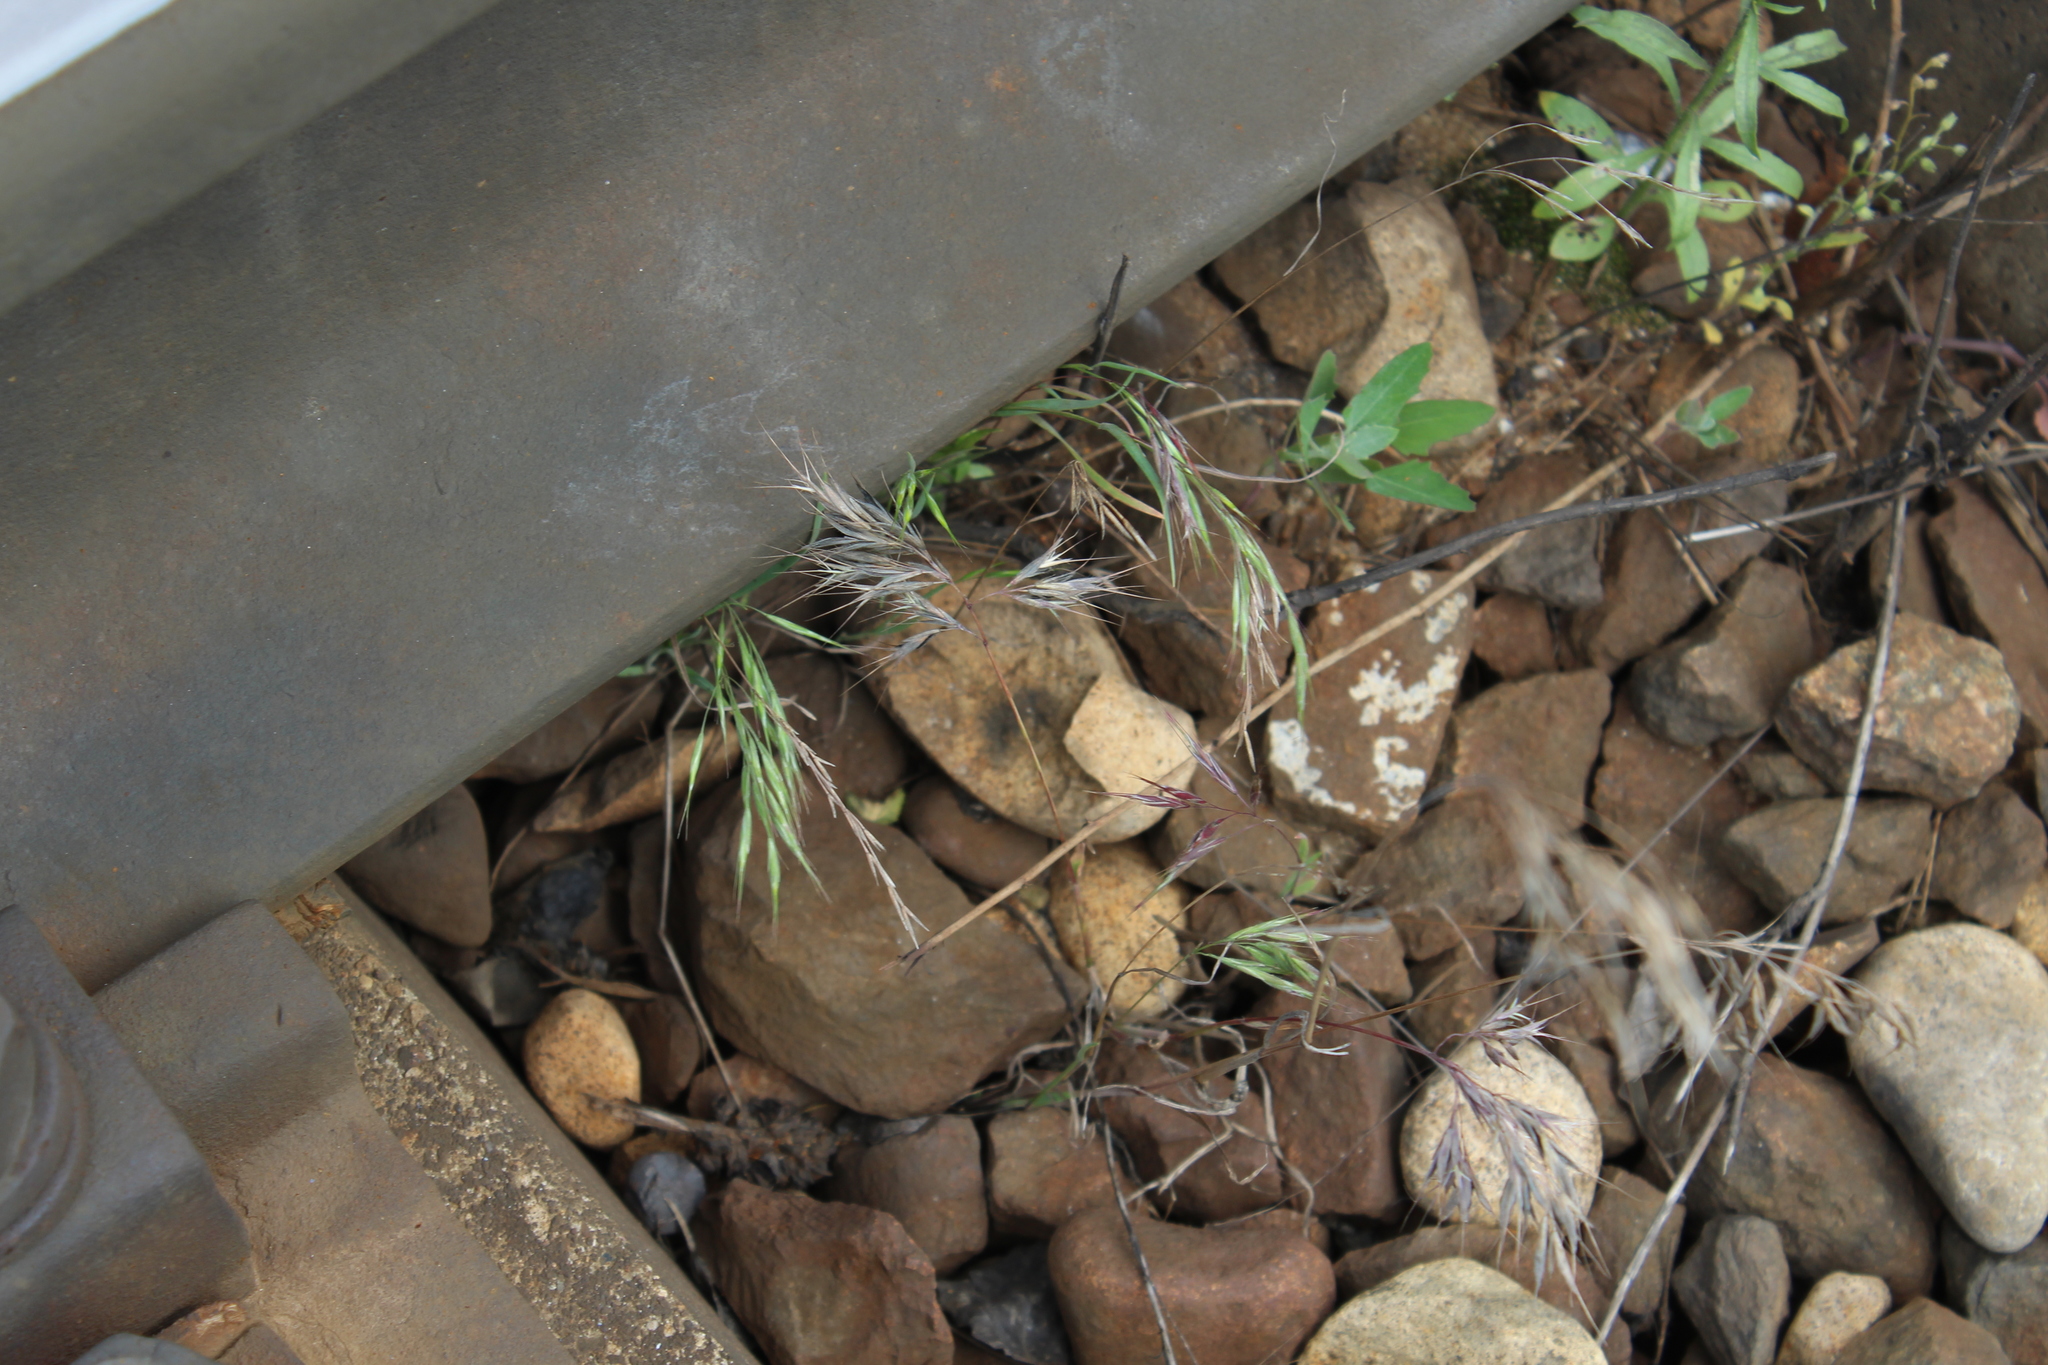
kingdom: Plantae
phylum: Tracheophyta
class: Liliopsida
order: Poales
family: Poaceae
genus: Bromus
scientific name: Bromus tectorum
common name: Cheatgrass
